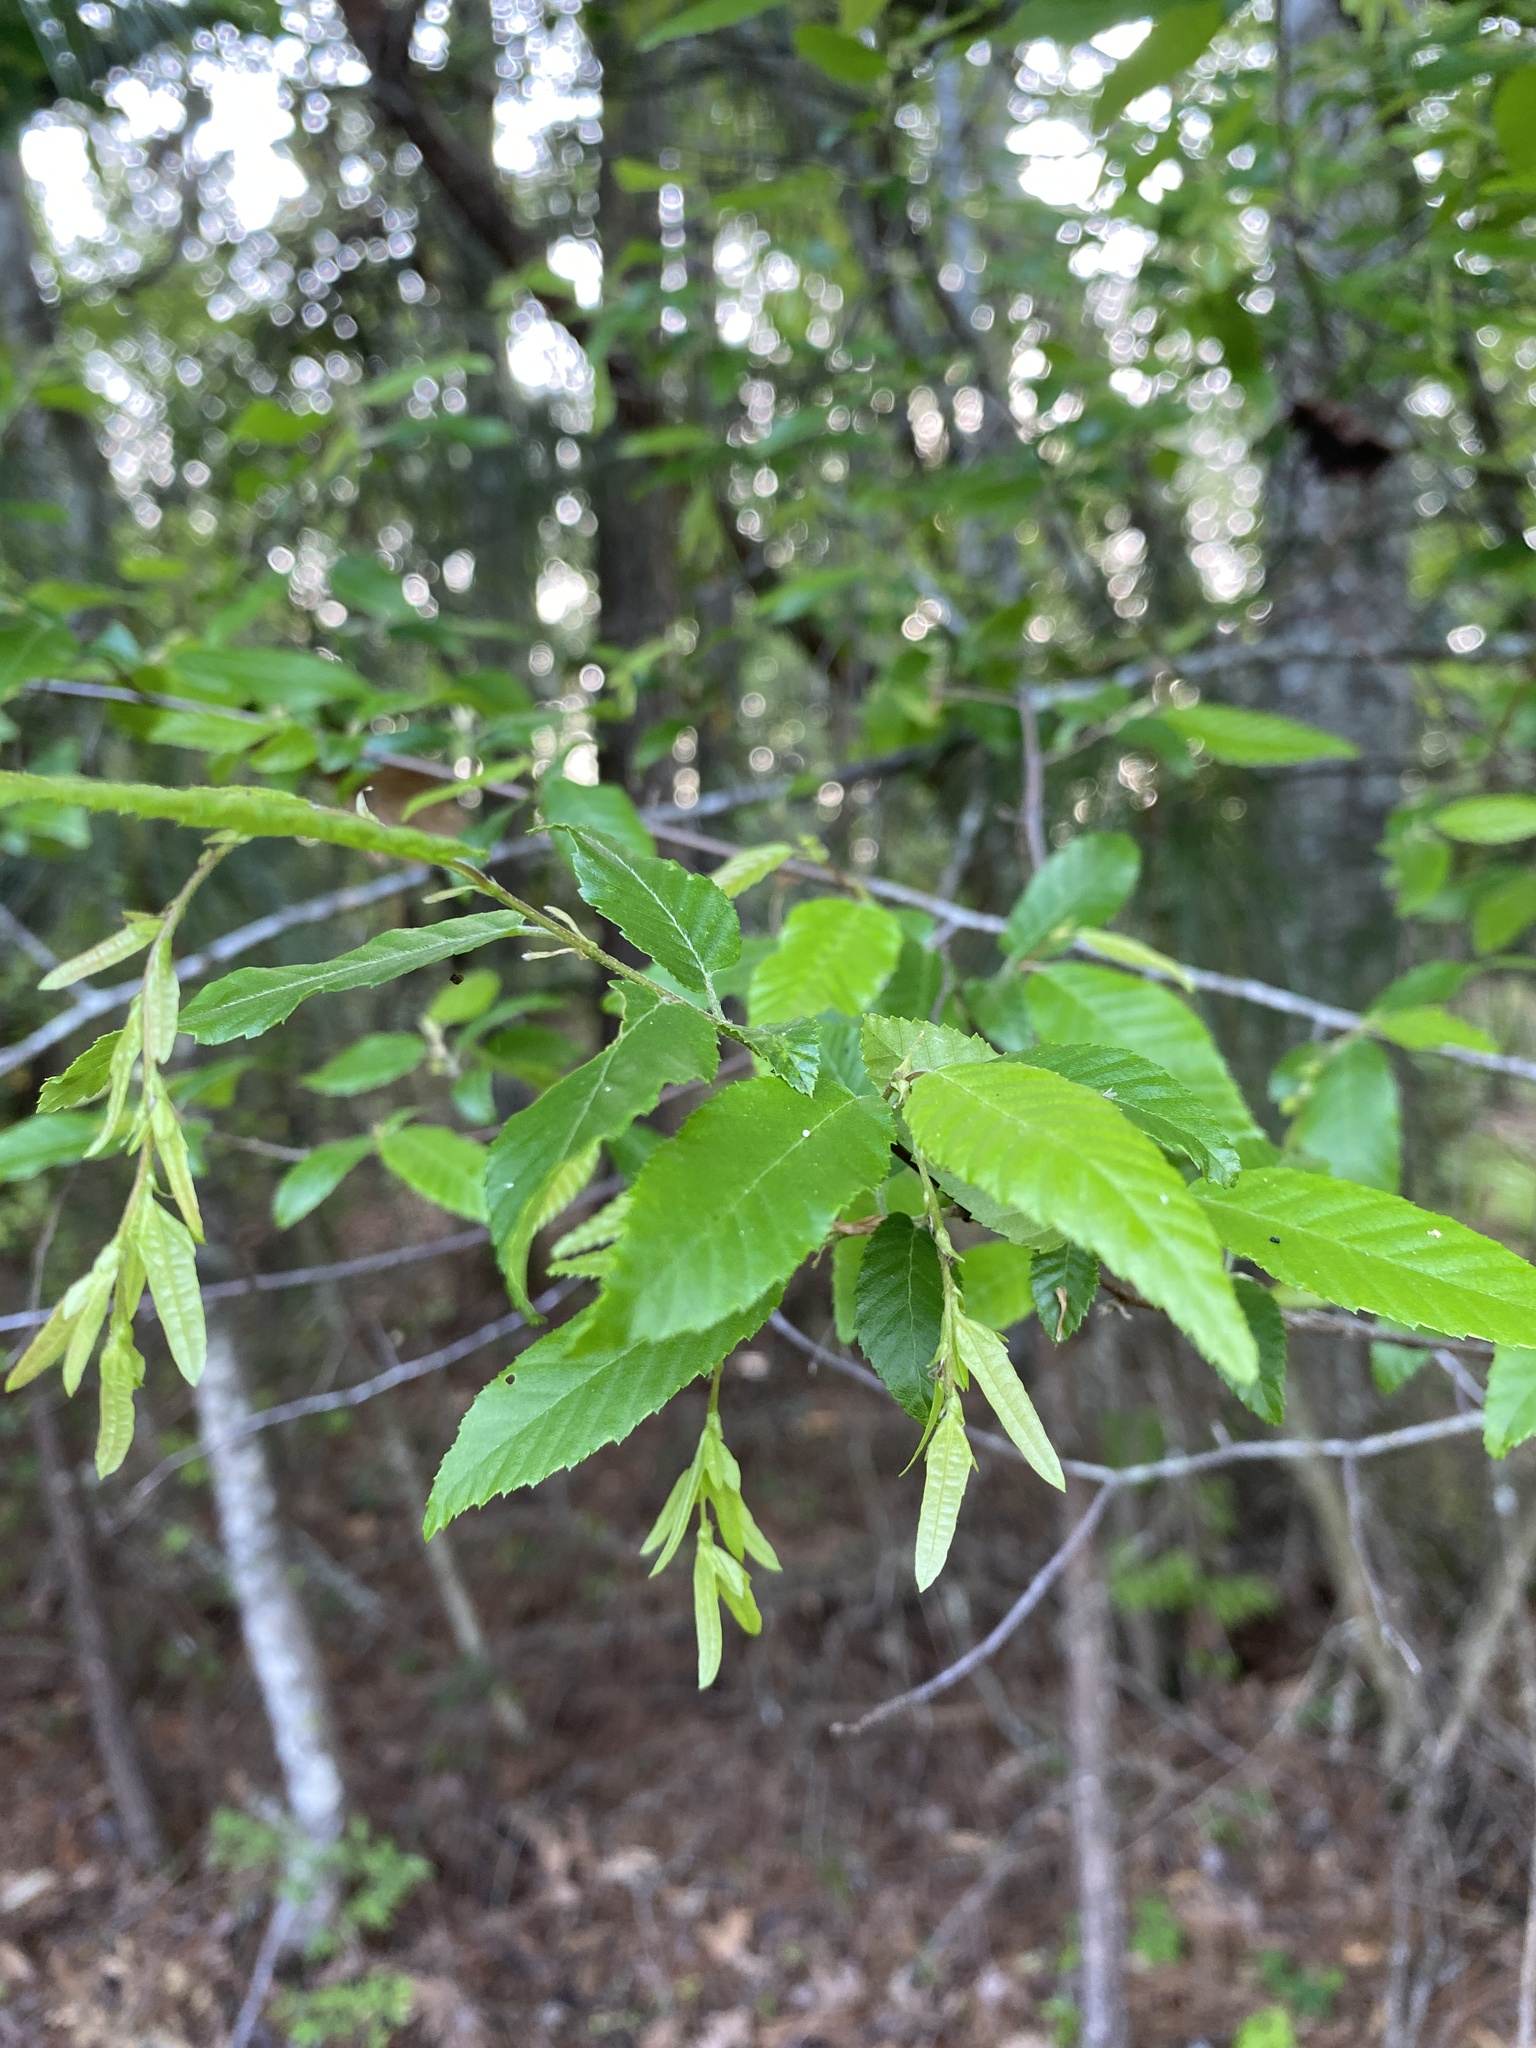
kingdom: Plantae
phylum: Tracheophyta
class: Magnoliopsida
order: Fagales
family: Betulaceae
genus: Carpinus
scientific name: Carpinus caroliniana
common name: American hornbeam
